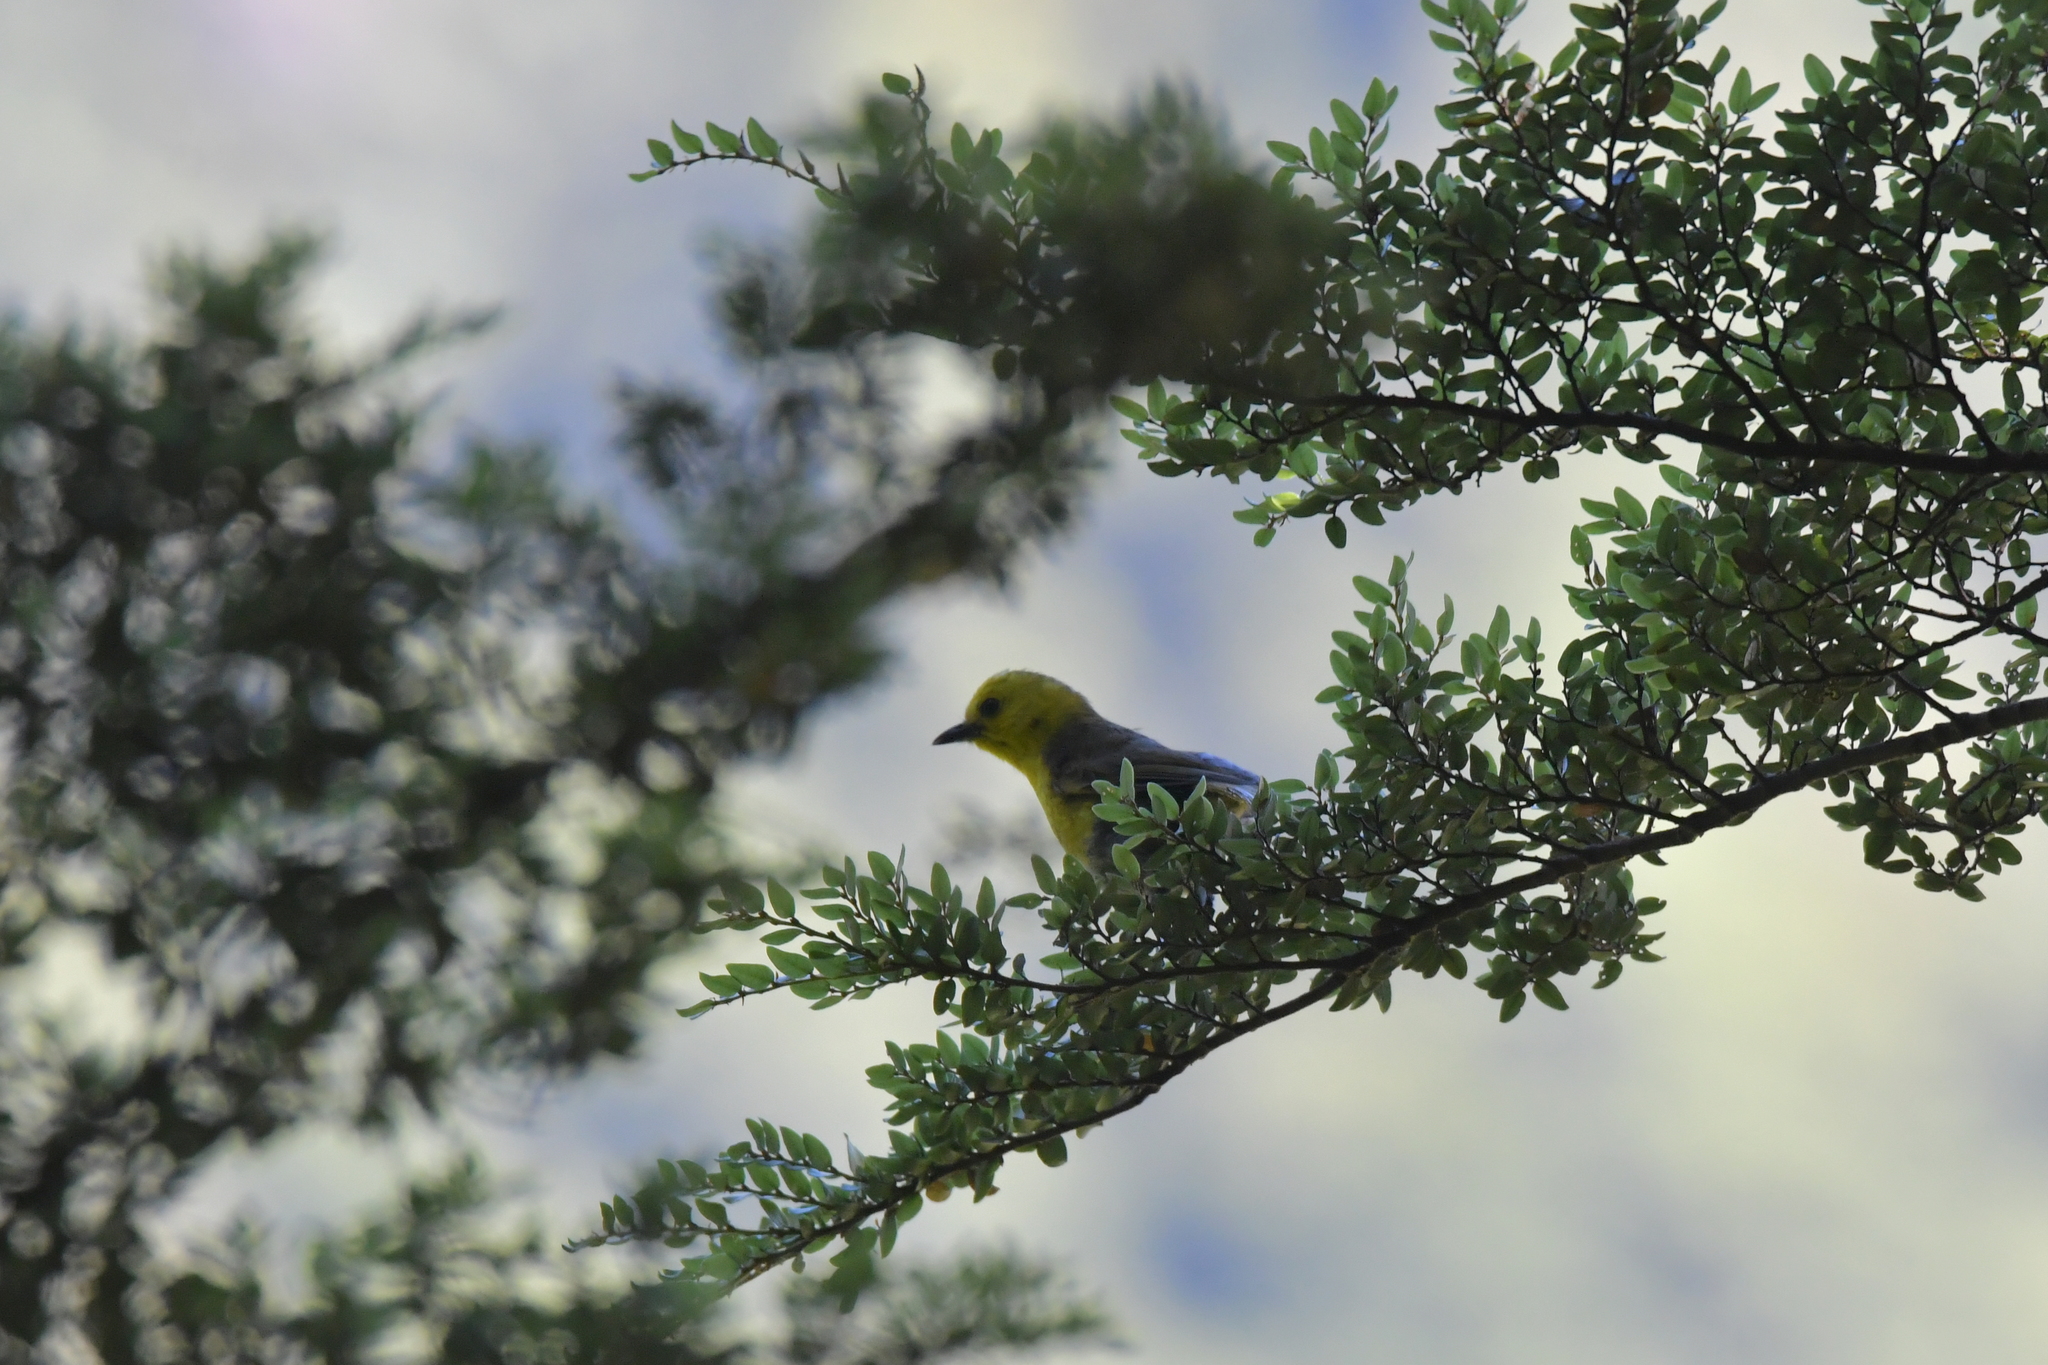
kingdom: Animalia
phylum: Chordata
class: Aves
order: Passeriformes
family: Acanthizidae
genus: Mohoua
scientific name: Mohoua ochrocephala
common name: Yellowhead
